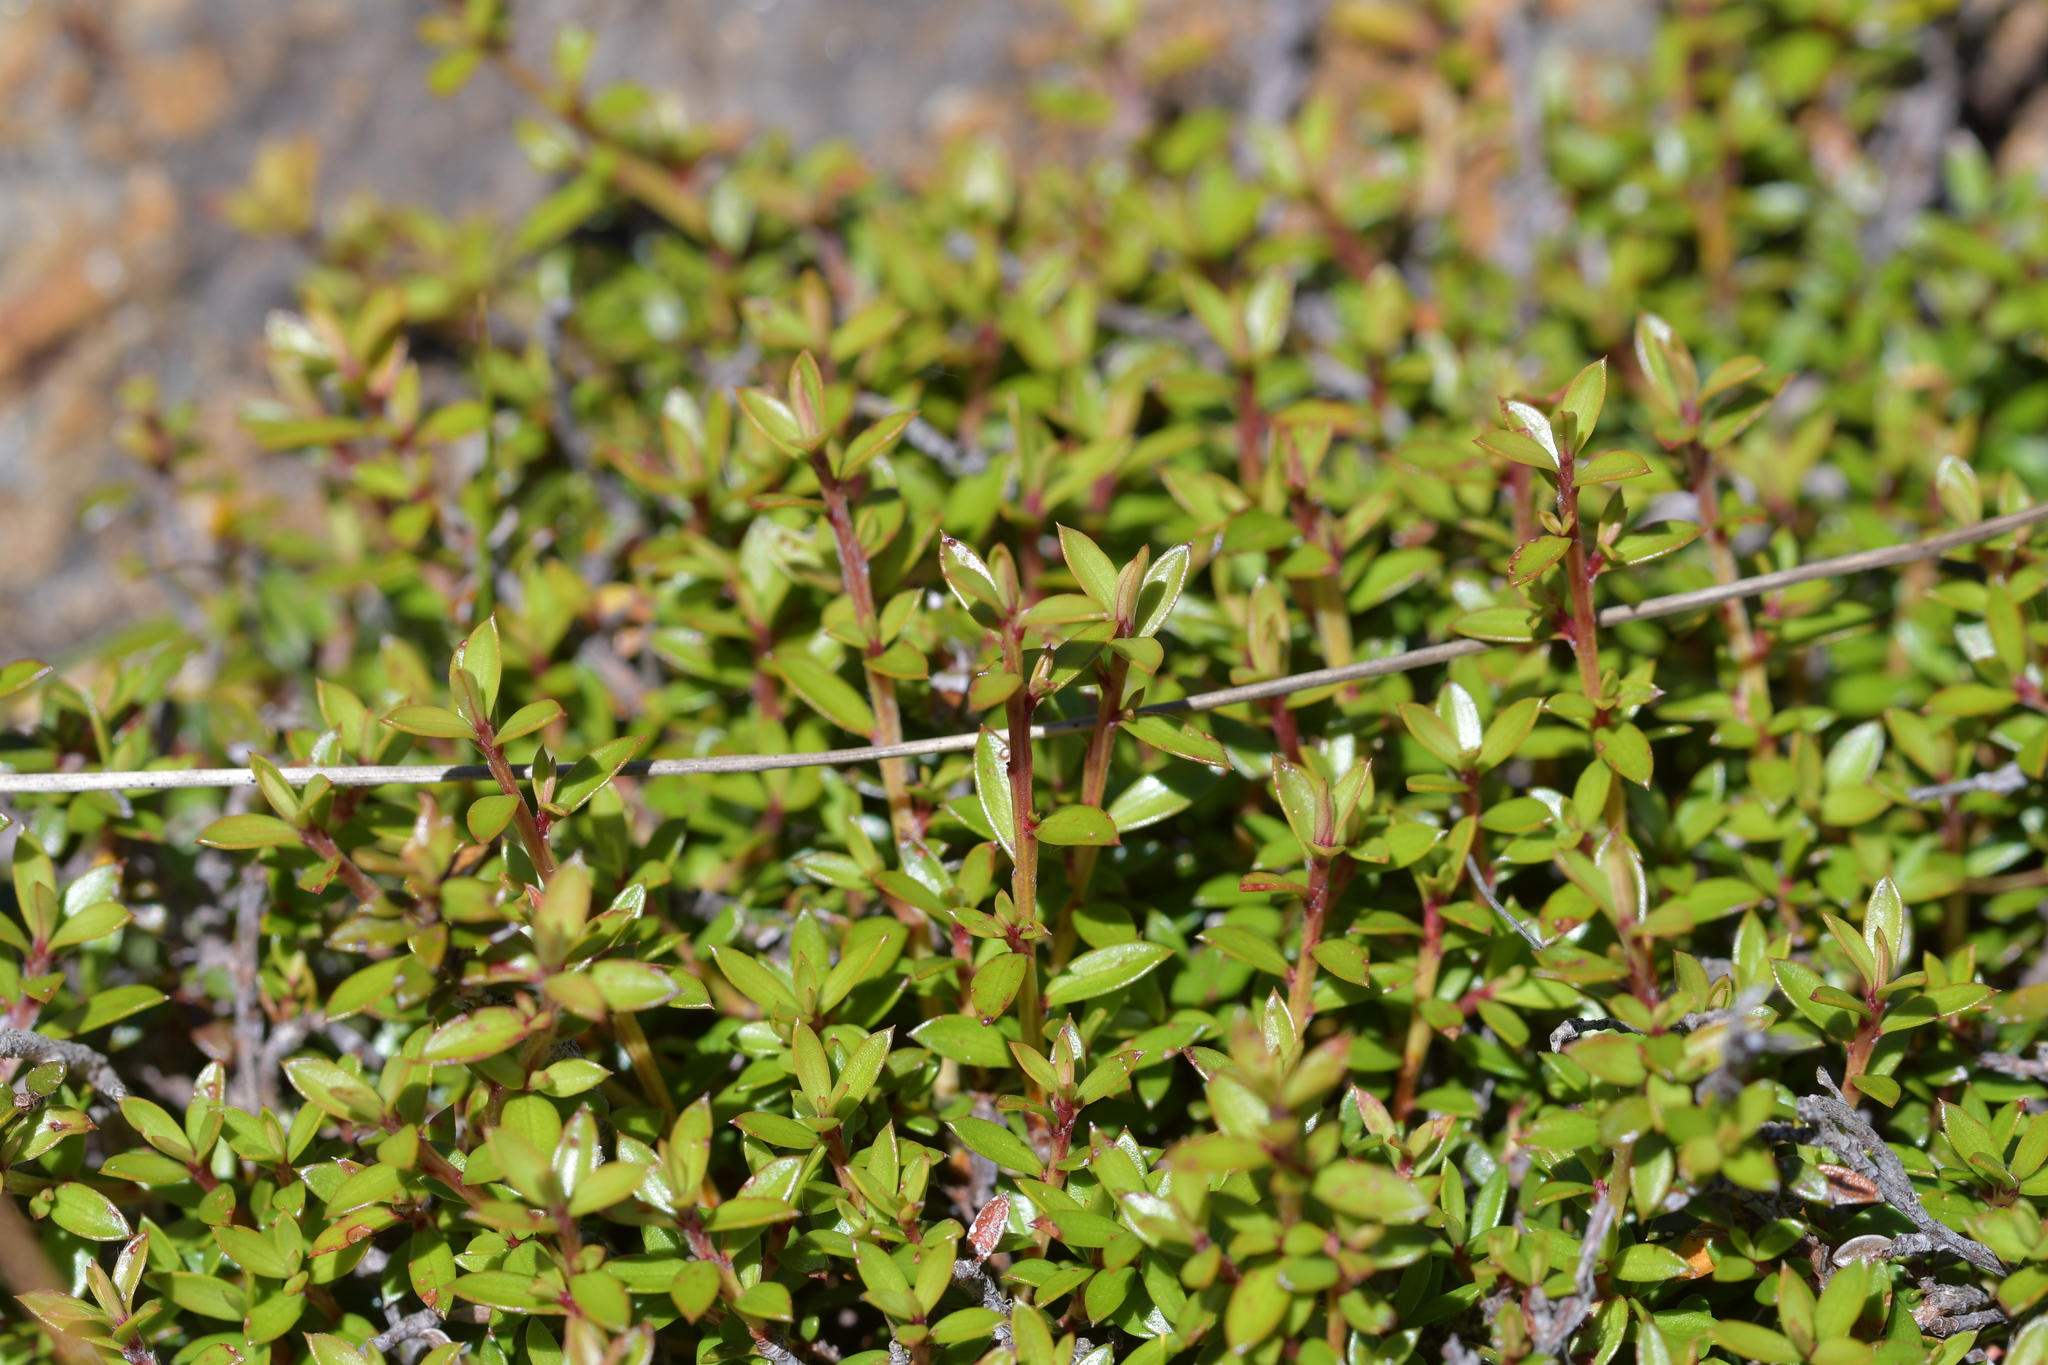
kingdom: Plantae
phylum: Tracheophyta
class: Magnoliopsida
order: Myrtales
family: Myrtaceae
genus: Leptospermum
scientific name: Leptospermum scoparium
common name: Broom tea-tree
